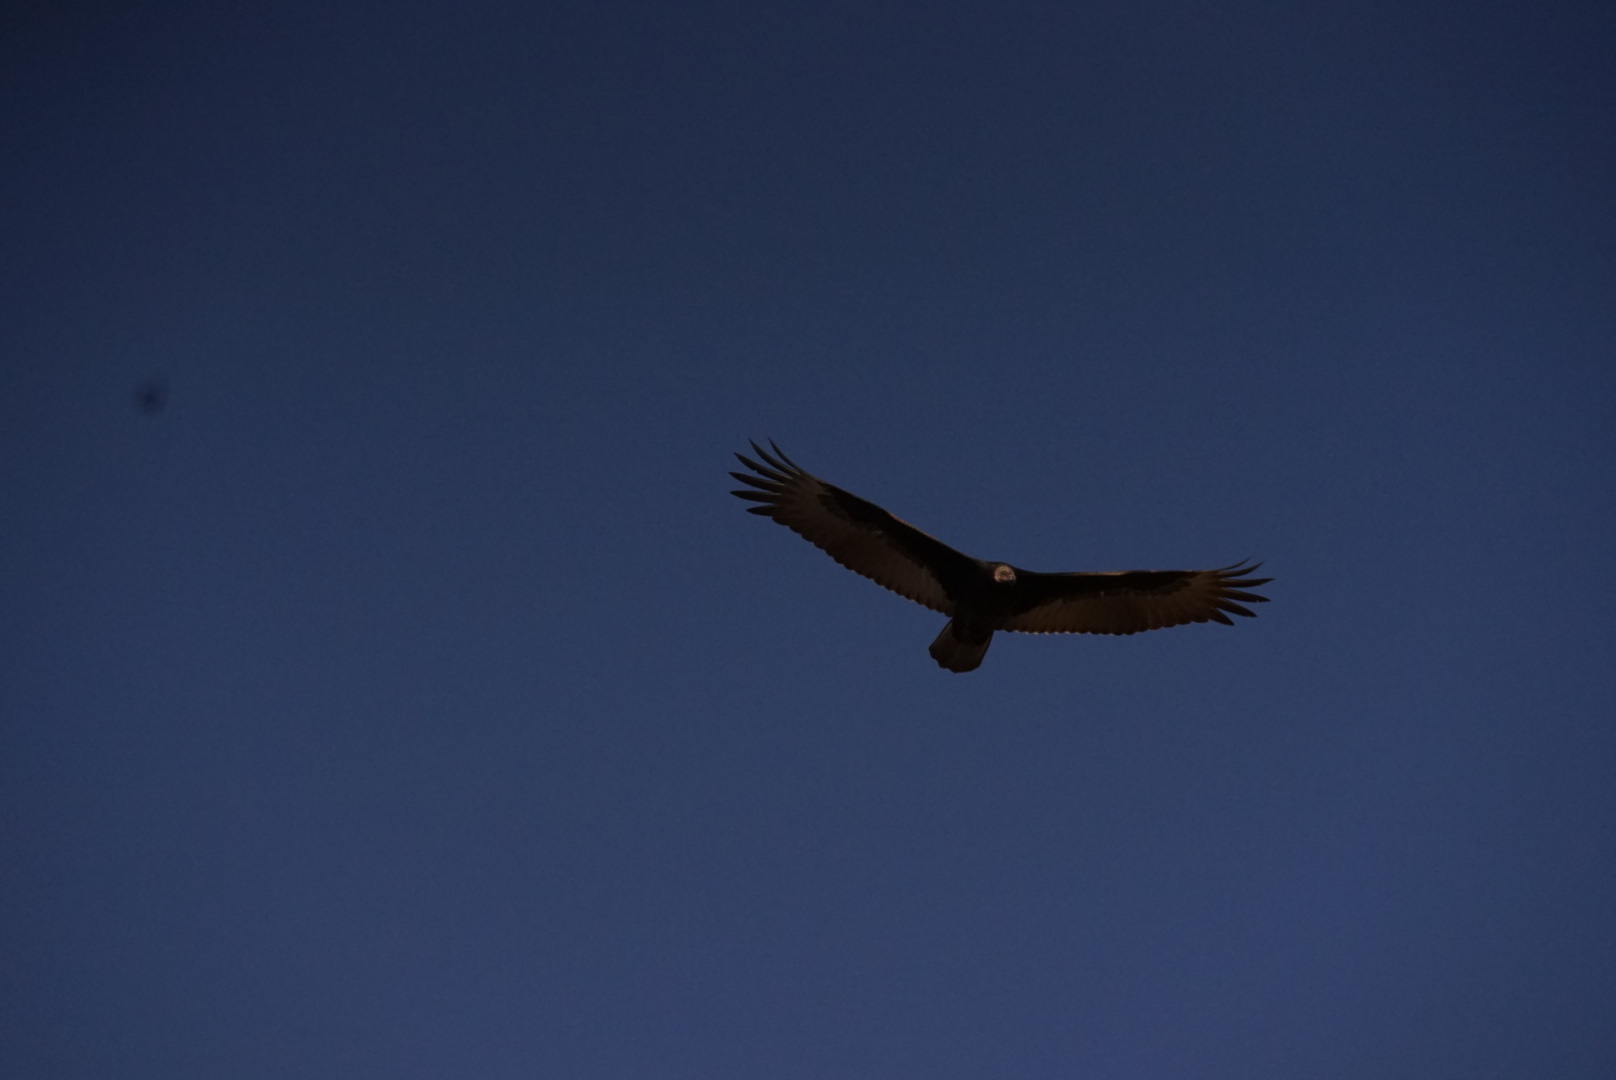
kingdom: Animalia
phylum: Chordata
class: Aves
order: Accipitriformes
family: Cathartidae
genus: Cathartes
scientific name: Cathartes aura
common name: Turkey vulture
